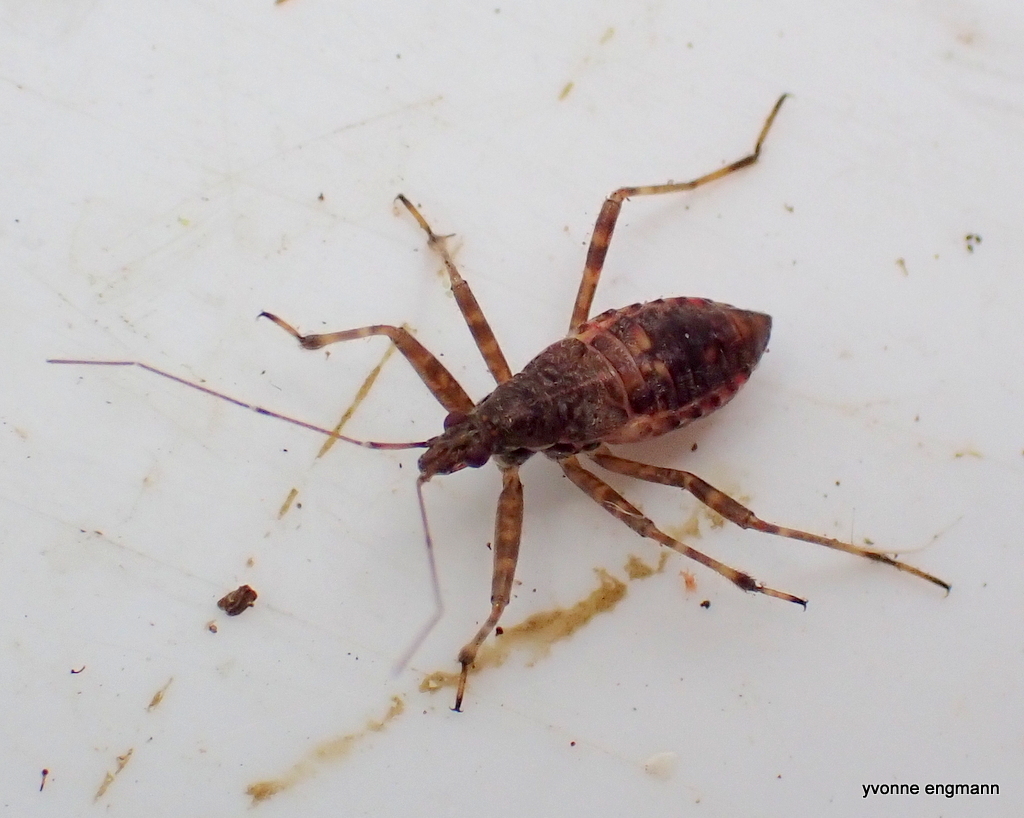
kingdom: Animalia
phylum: Arthropoda
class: Insecta
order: Hemiptera
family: Nabidae
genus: Himacerus
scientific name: Himacerus apterus
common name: Tree damsel bug
